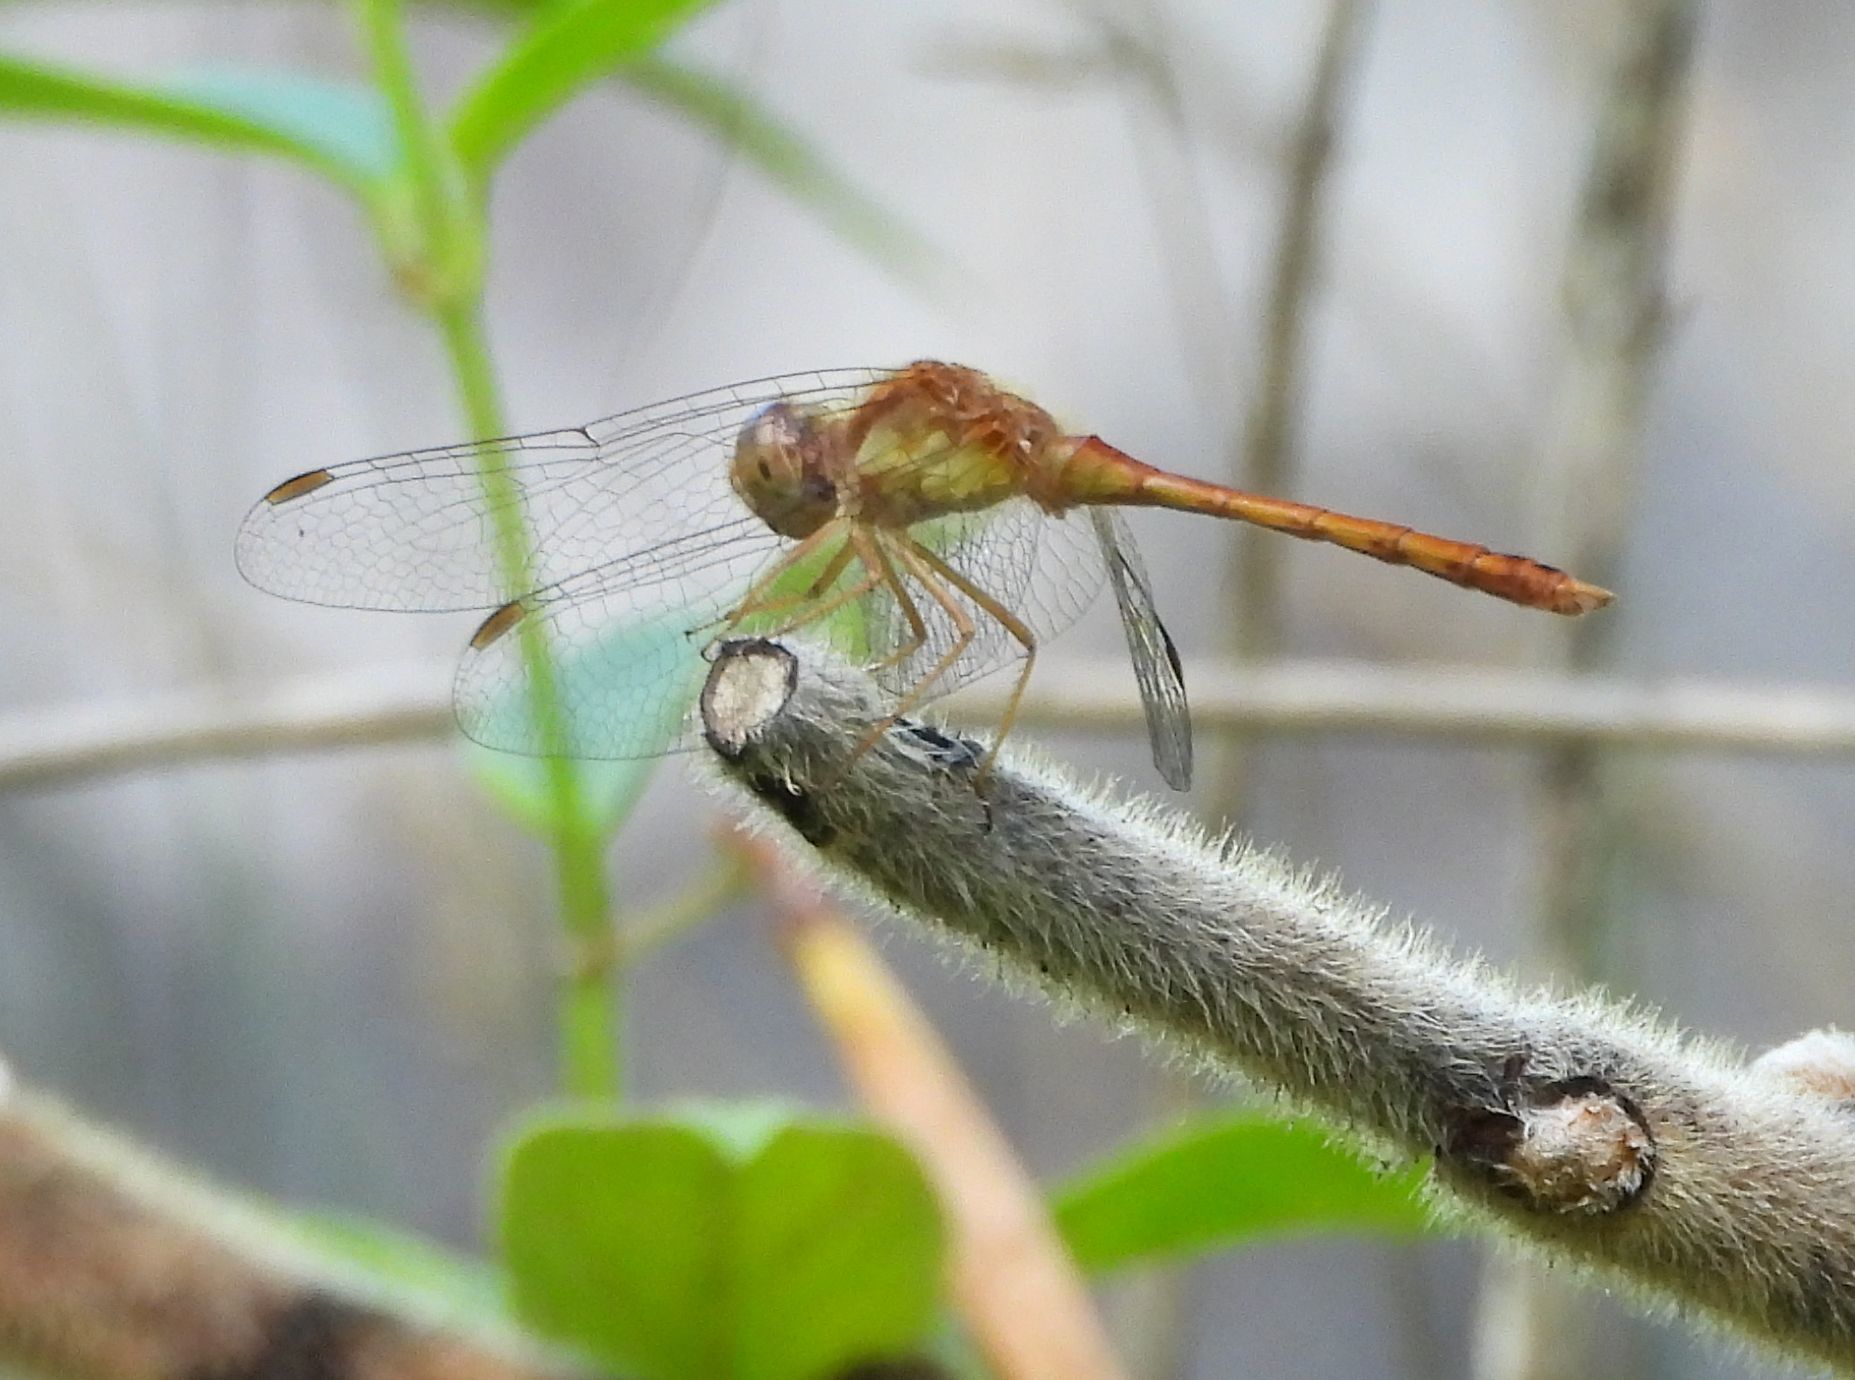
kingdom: Animalia
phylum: Arthropoda
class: Insecta
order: Odonata
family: Libellulidae
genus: Sympetrum
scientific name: Sympetrum vicinum
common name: Autumn meadowhawk
